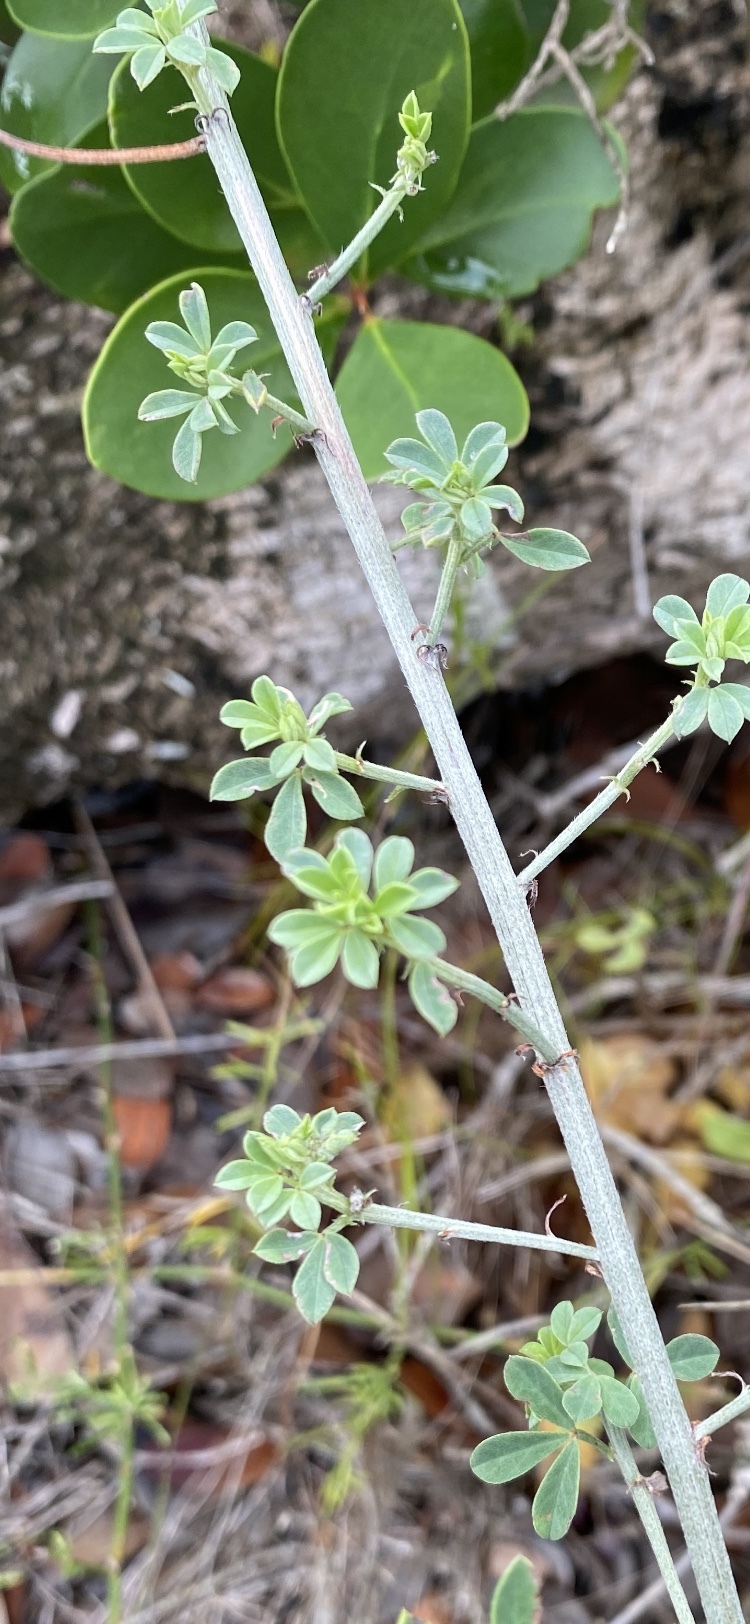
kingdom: Plantae
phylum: Tracheophyta
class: Magnoliopsida
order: Fabales
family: Fabaceae
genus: Indigofera
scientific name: Indigofera porrecta
